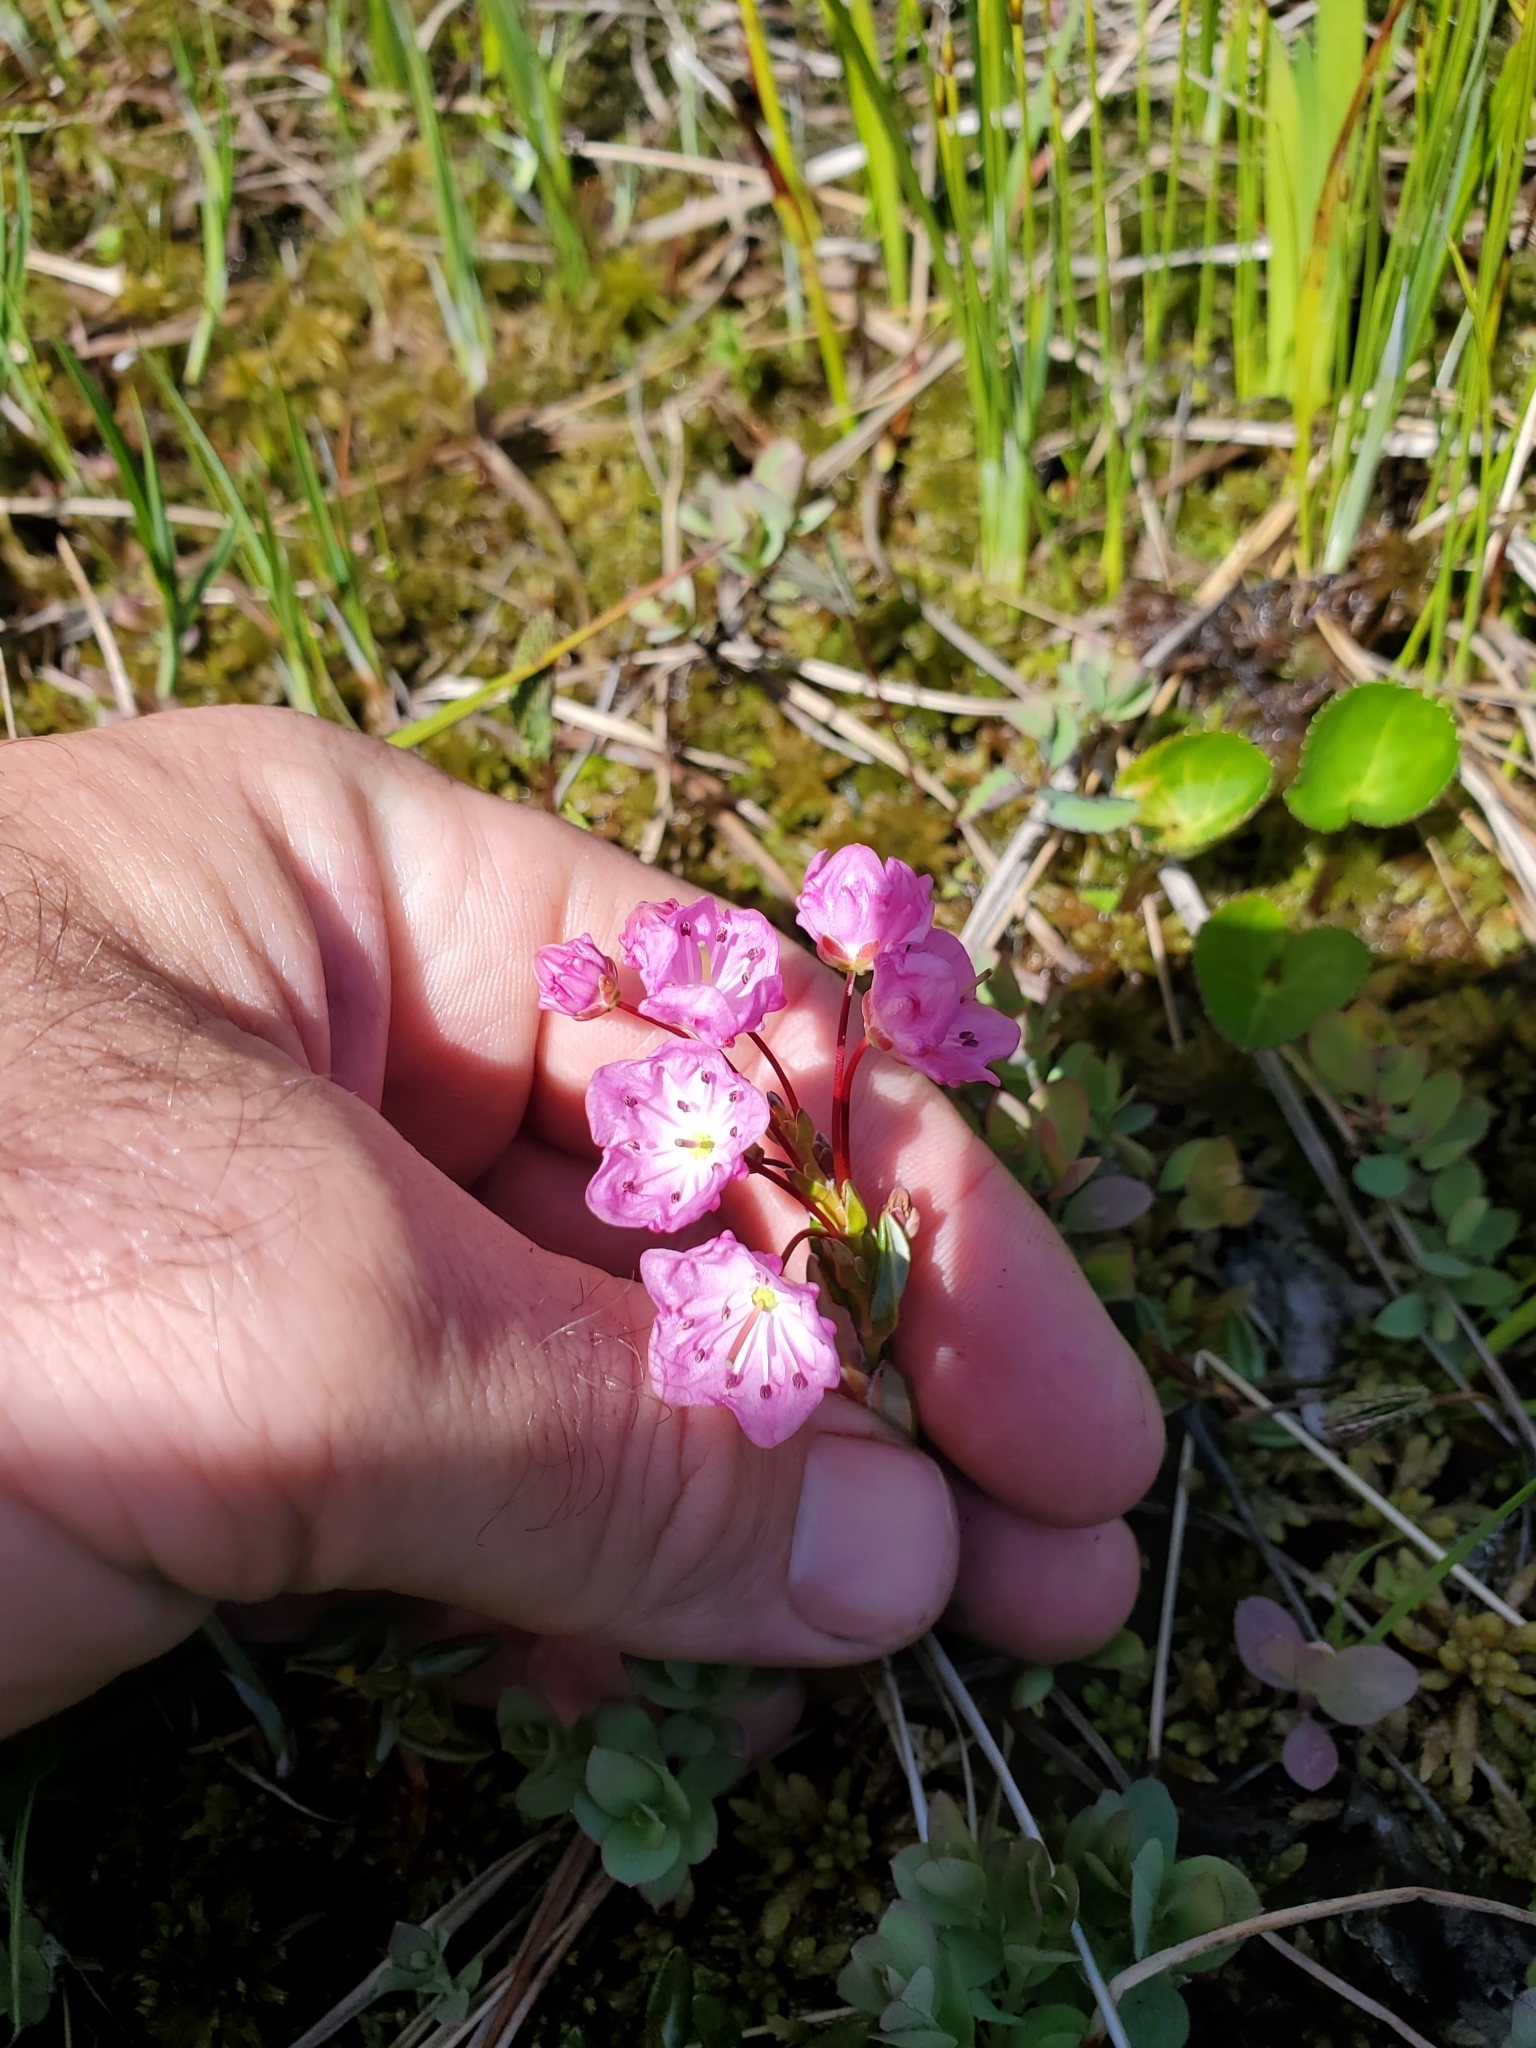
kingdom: Plantae
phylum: Tracheophyta
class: Magnoliopsida
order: Ericales
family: Ericaceae
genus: Kalmia
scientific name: Kalmia microphylla
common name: Alpine bog laurel
